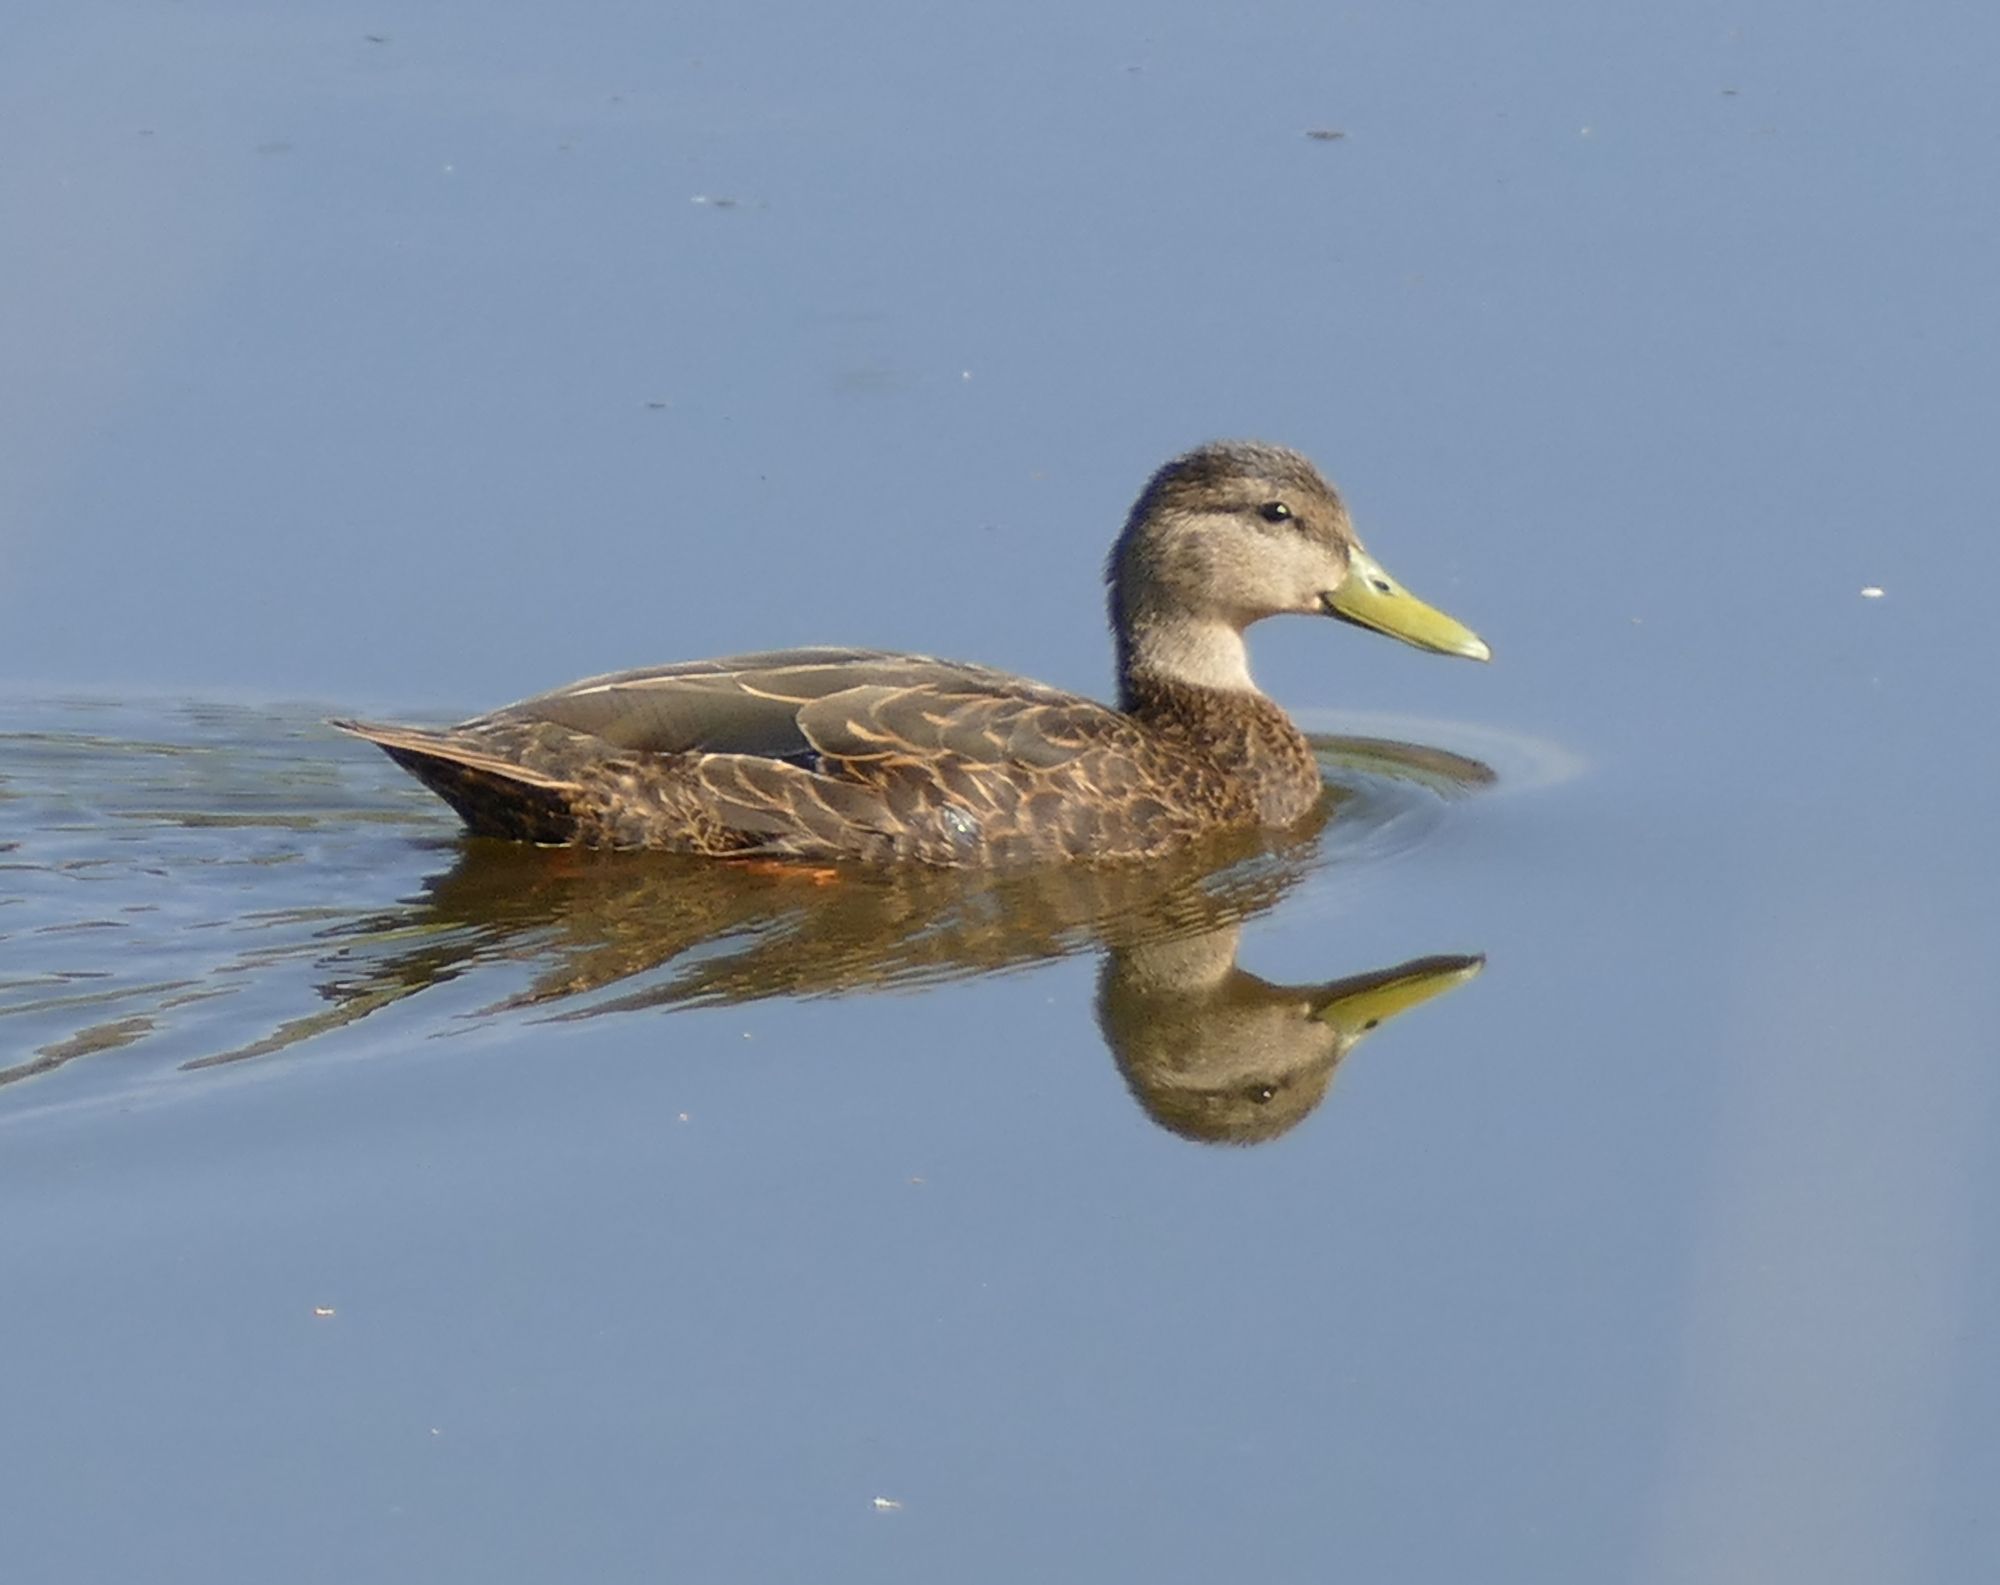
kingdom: Animalia
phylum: Chordata
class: Aves
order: Anseriformes
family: Anatidae
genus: Anas
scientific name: Anas diazi
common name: Mexican duck
